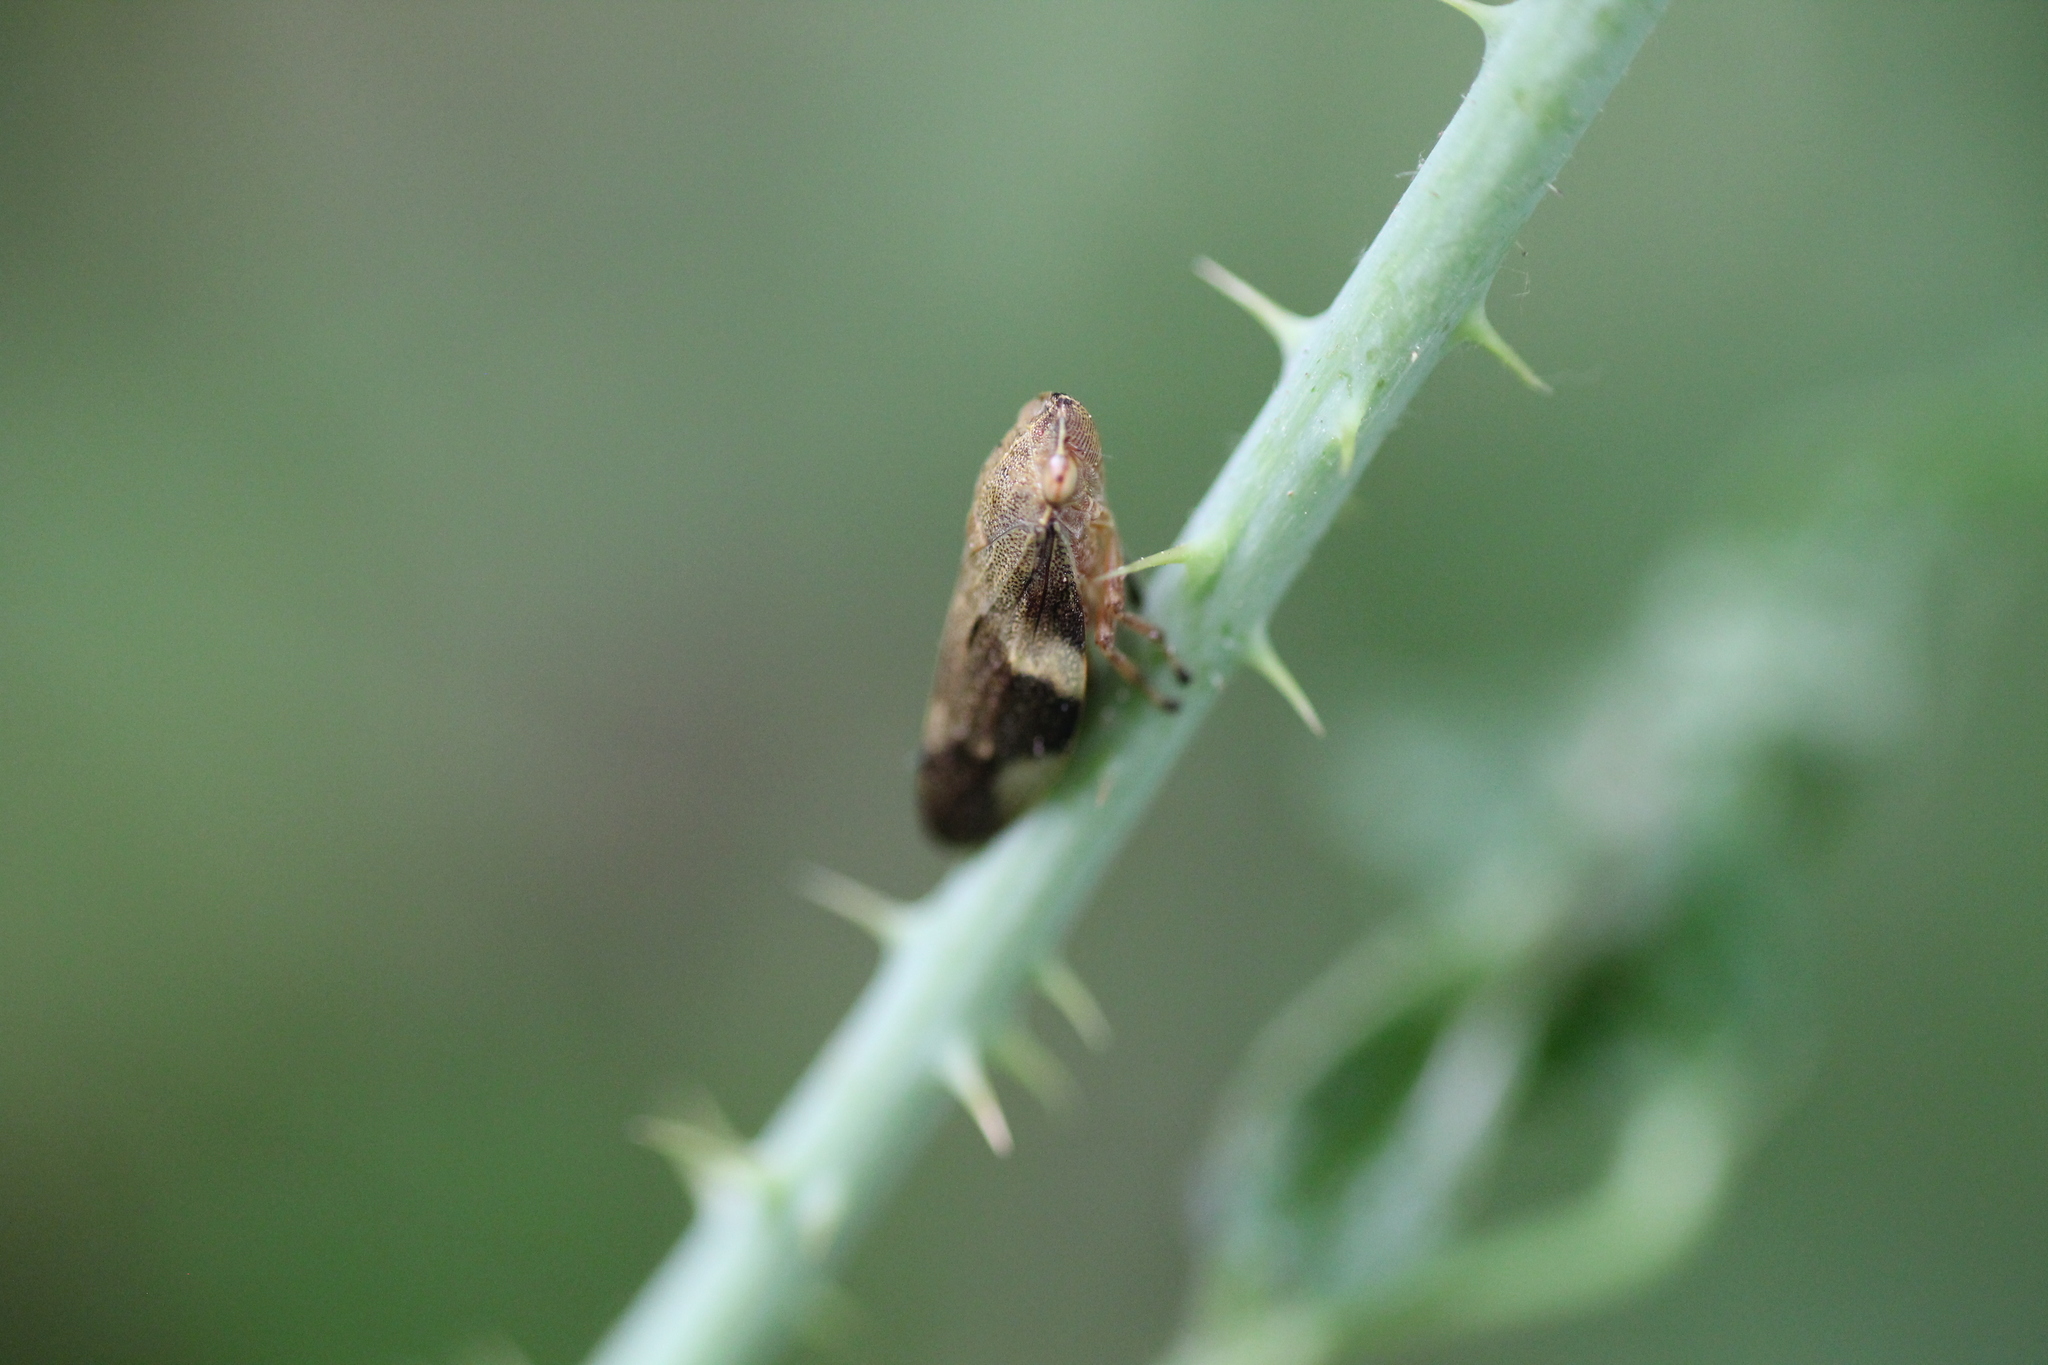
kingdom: Animalia
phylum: Arthropoda
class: Insecta
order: Hemiptera
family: Aphrophoridae
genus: Aphrophora
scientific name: Aphrophora alni
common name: European alder spittlebug
